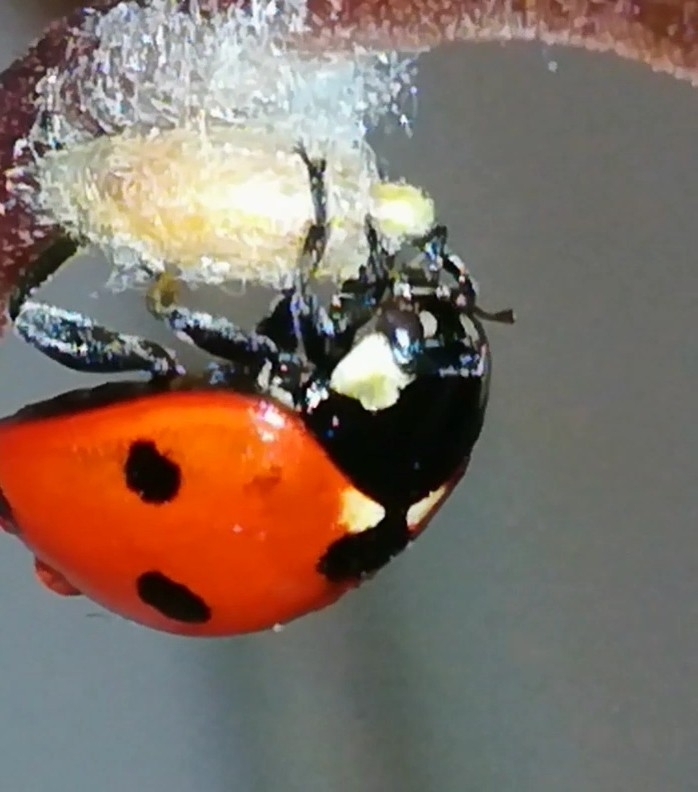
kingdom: Animalia
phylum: Arthropoda
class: Insecta
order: Hymenoptera
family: Braconidae
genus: Dinocampus
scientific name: Dinocampus coccinellae
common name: Braconid wasp
